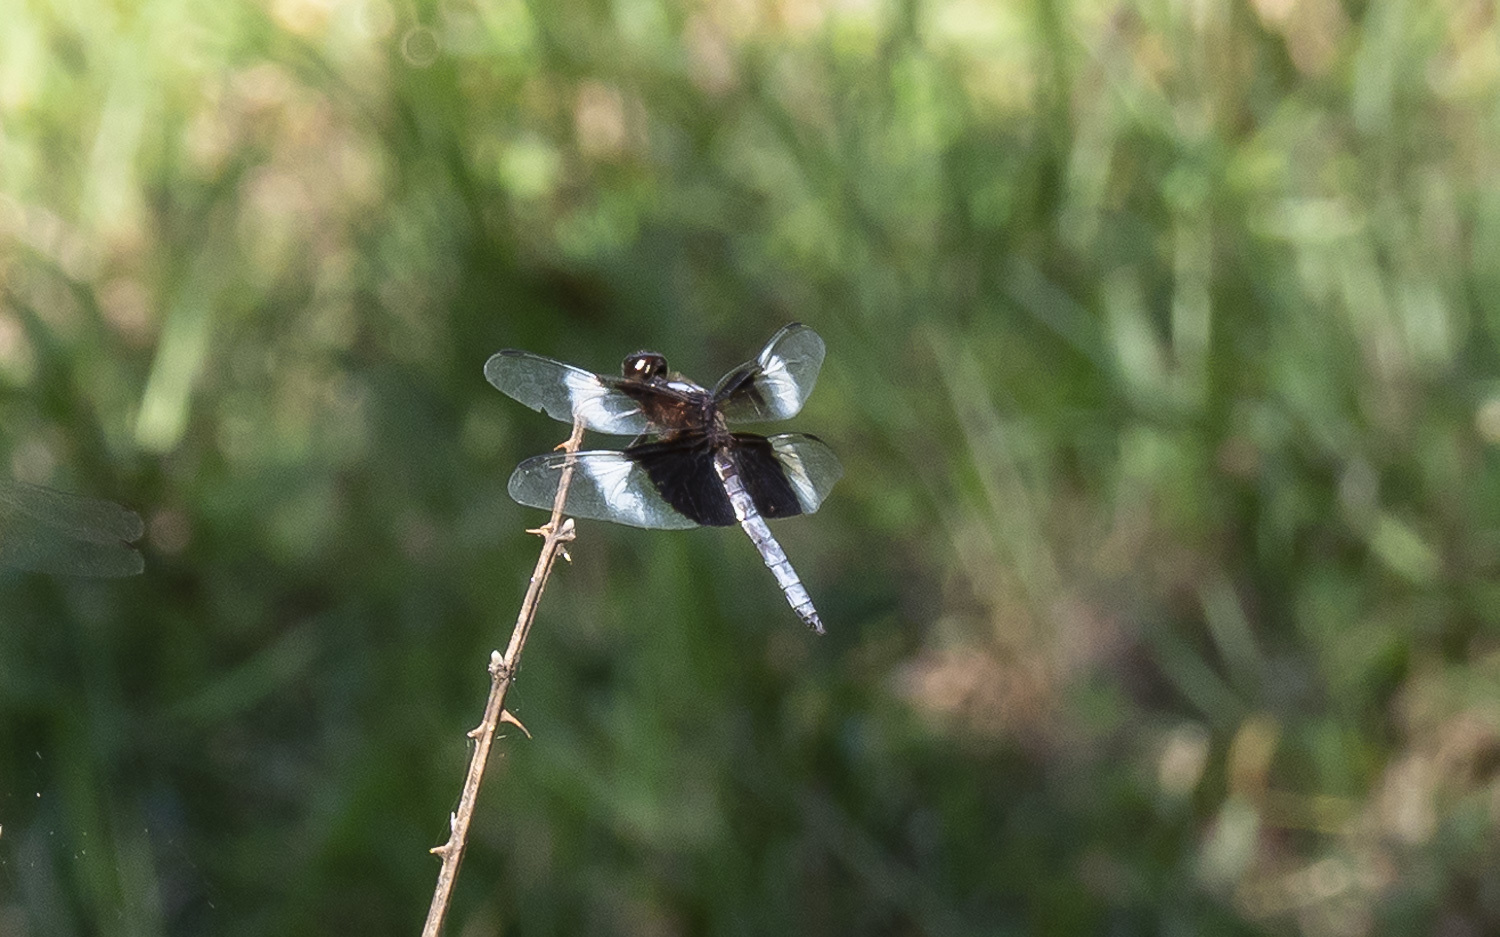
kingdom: Animalia
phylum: Arthropoda
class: Insecta
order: Odonata
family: Libellulidae
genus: Libellula
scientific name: Libellula luctuosa
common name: Widow skimmer
